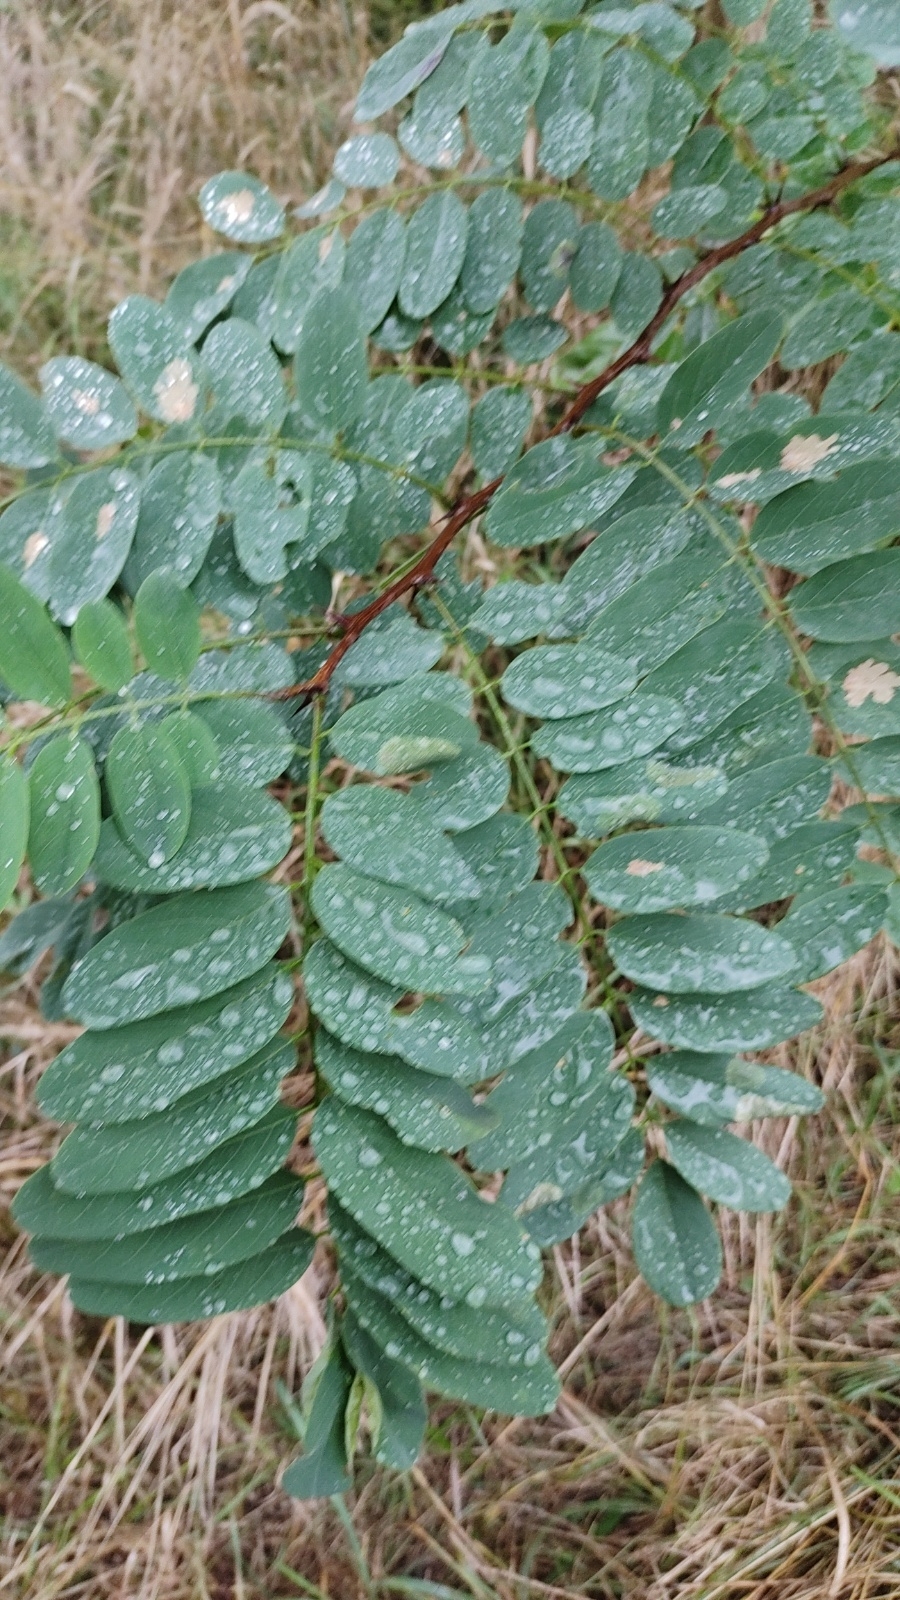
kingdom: Plantae
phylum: Tracheophyta
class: Magnoliopsida
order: Fabales
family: Fabaceae
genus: Robinia
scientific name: Robinia pseudoacacia
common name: Black locust
